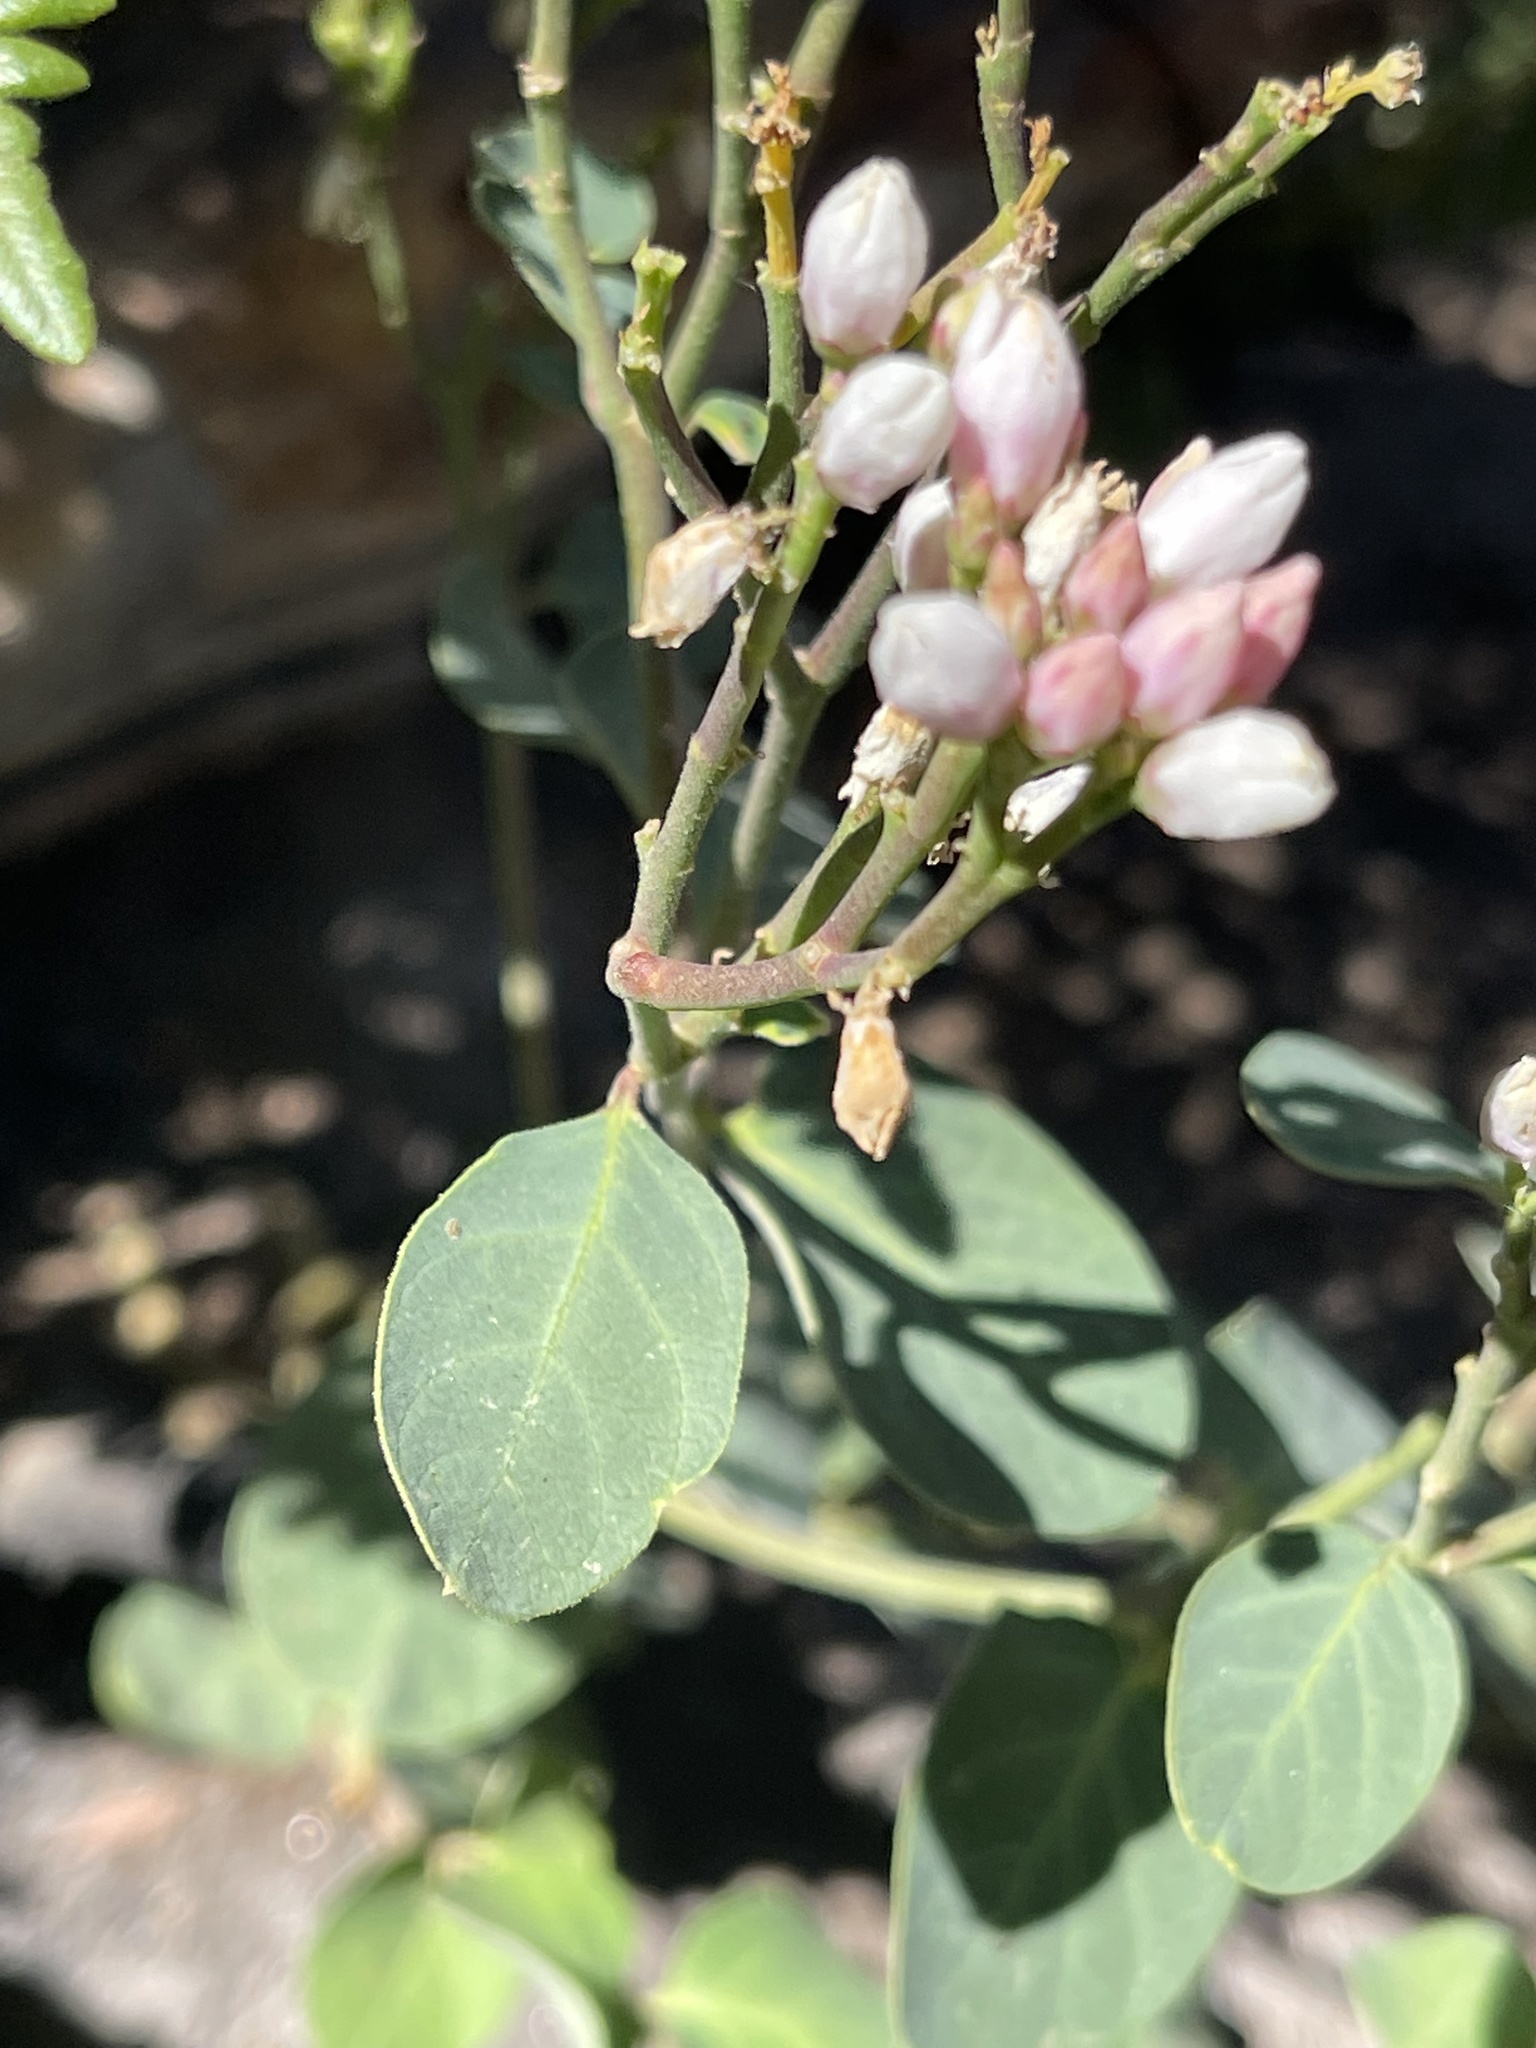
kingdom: Plantae
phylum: Tracheophyta
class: Magnoliopsida
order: Gentianales
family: Apocynaceae
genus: Apocynum
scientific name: Apocynum androsaemifolium
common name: Spreading dogbane
